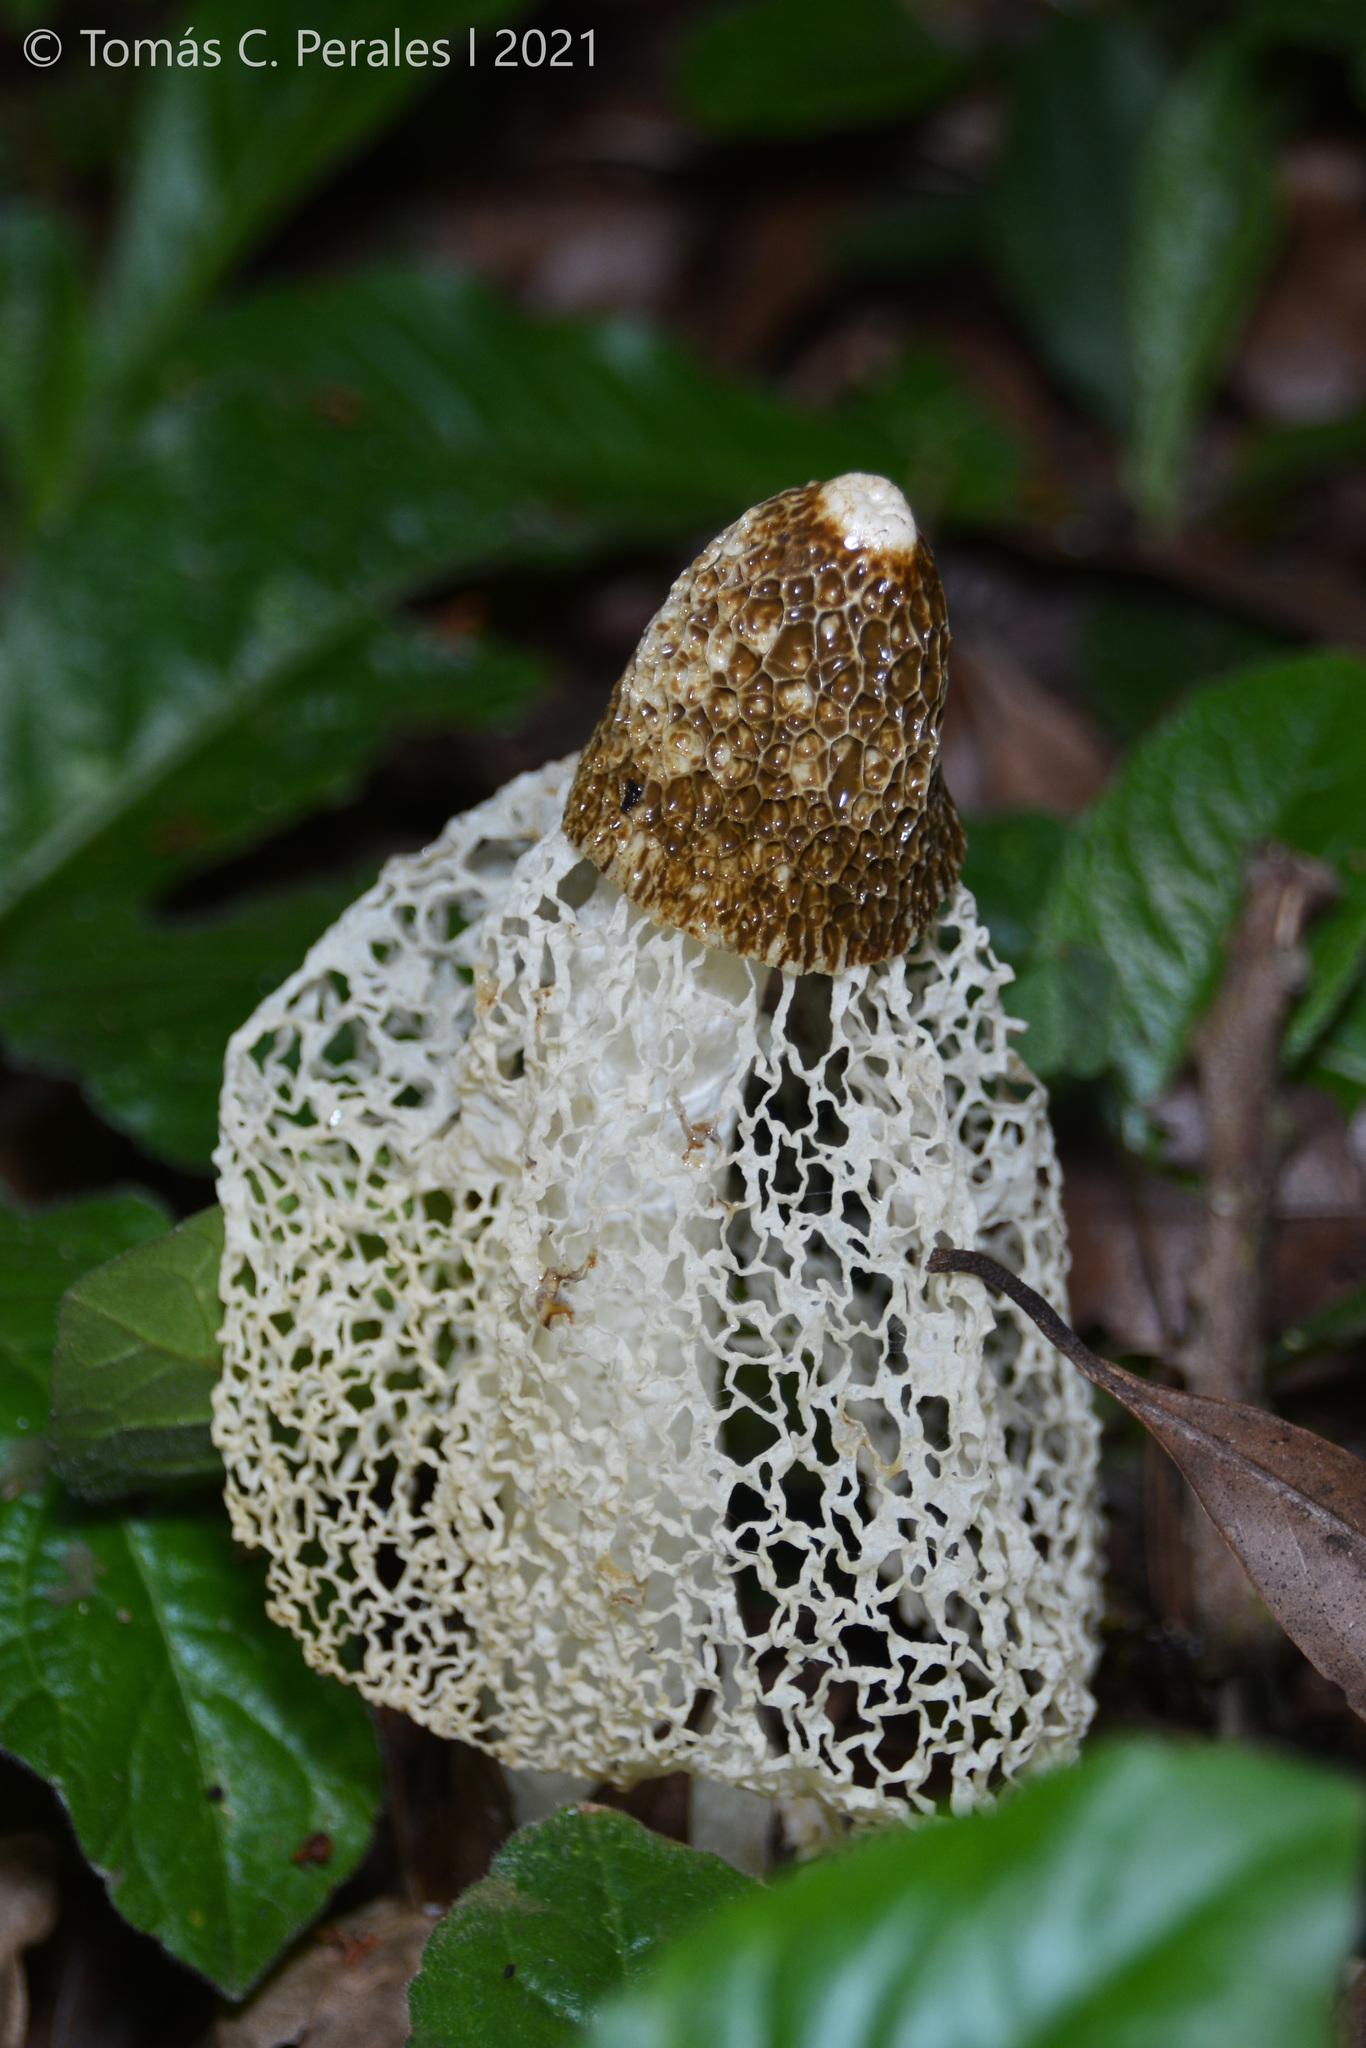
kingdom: Fungi
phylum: Basidiomycota
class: Agaricomycetes
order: Phallales
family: Phallaceae
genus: Phallus
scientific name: Phallus indusiatus
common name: Bridal veil stinkhorn
